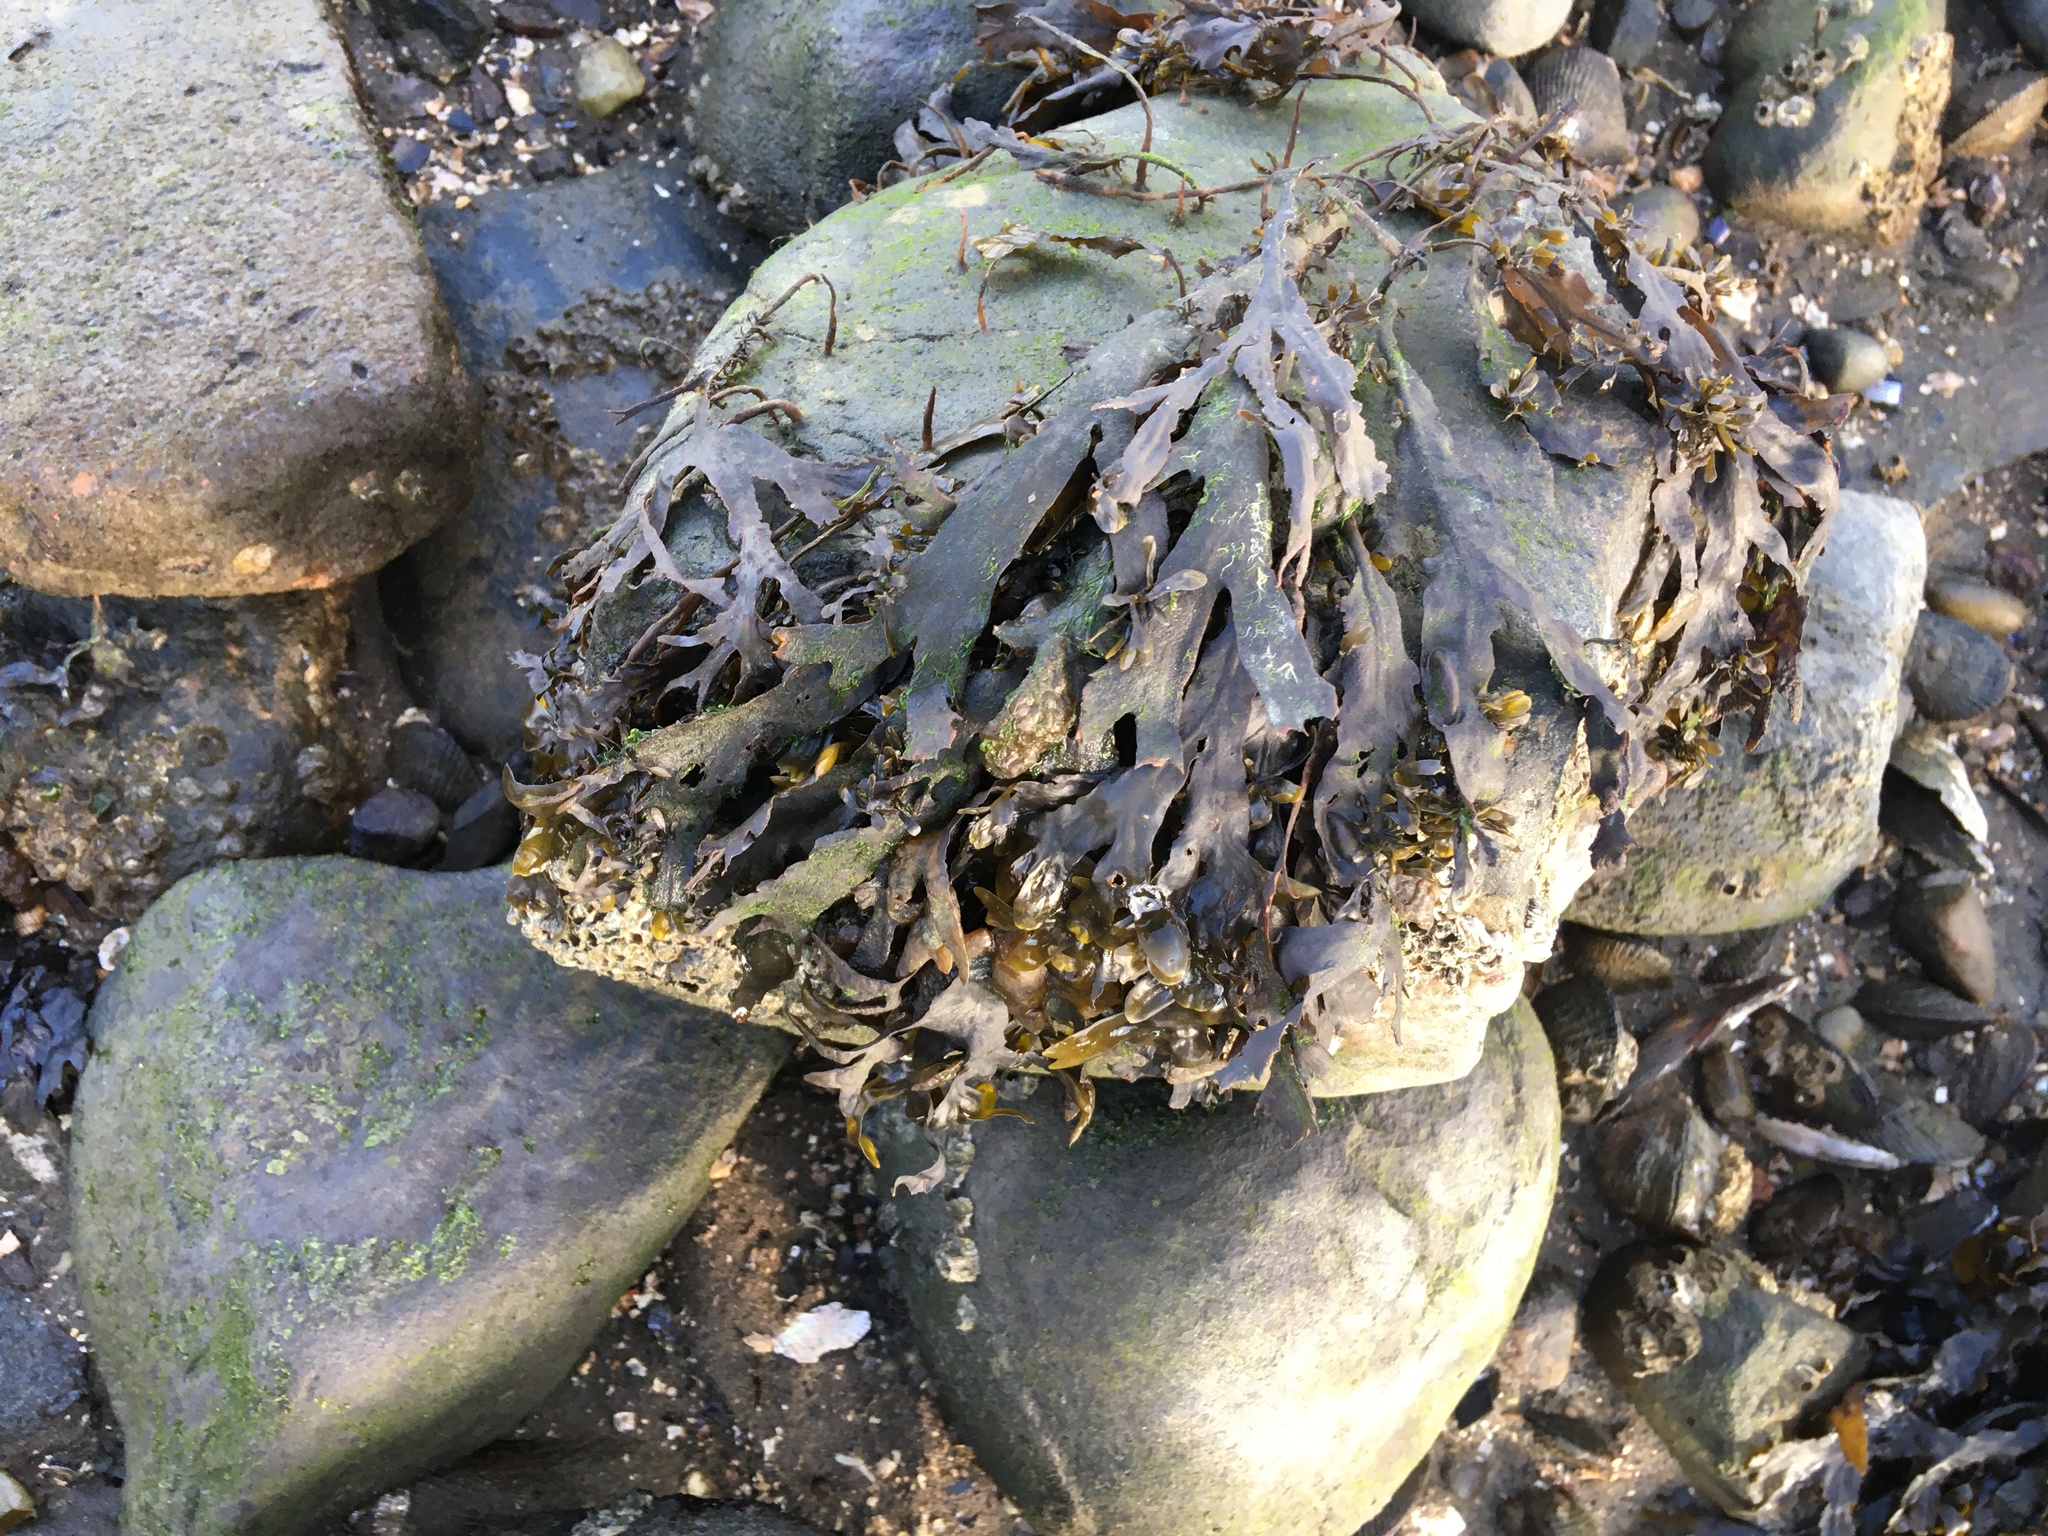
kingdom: Chromista
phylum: Ochrophyta
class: Phaeophyceae
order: Fucales
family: Fucaceae
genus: Fucus
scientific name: Fucus vesiculosus
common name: Bladder wrack
